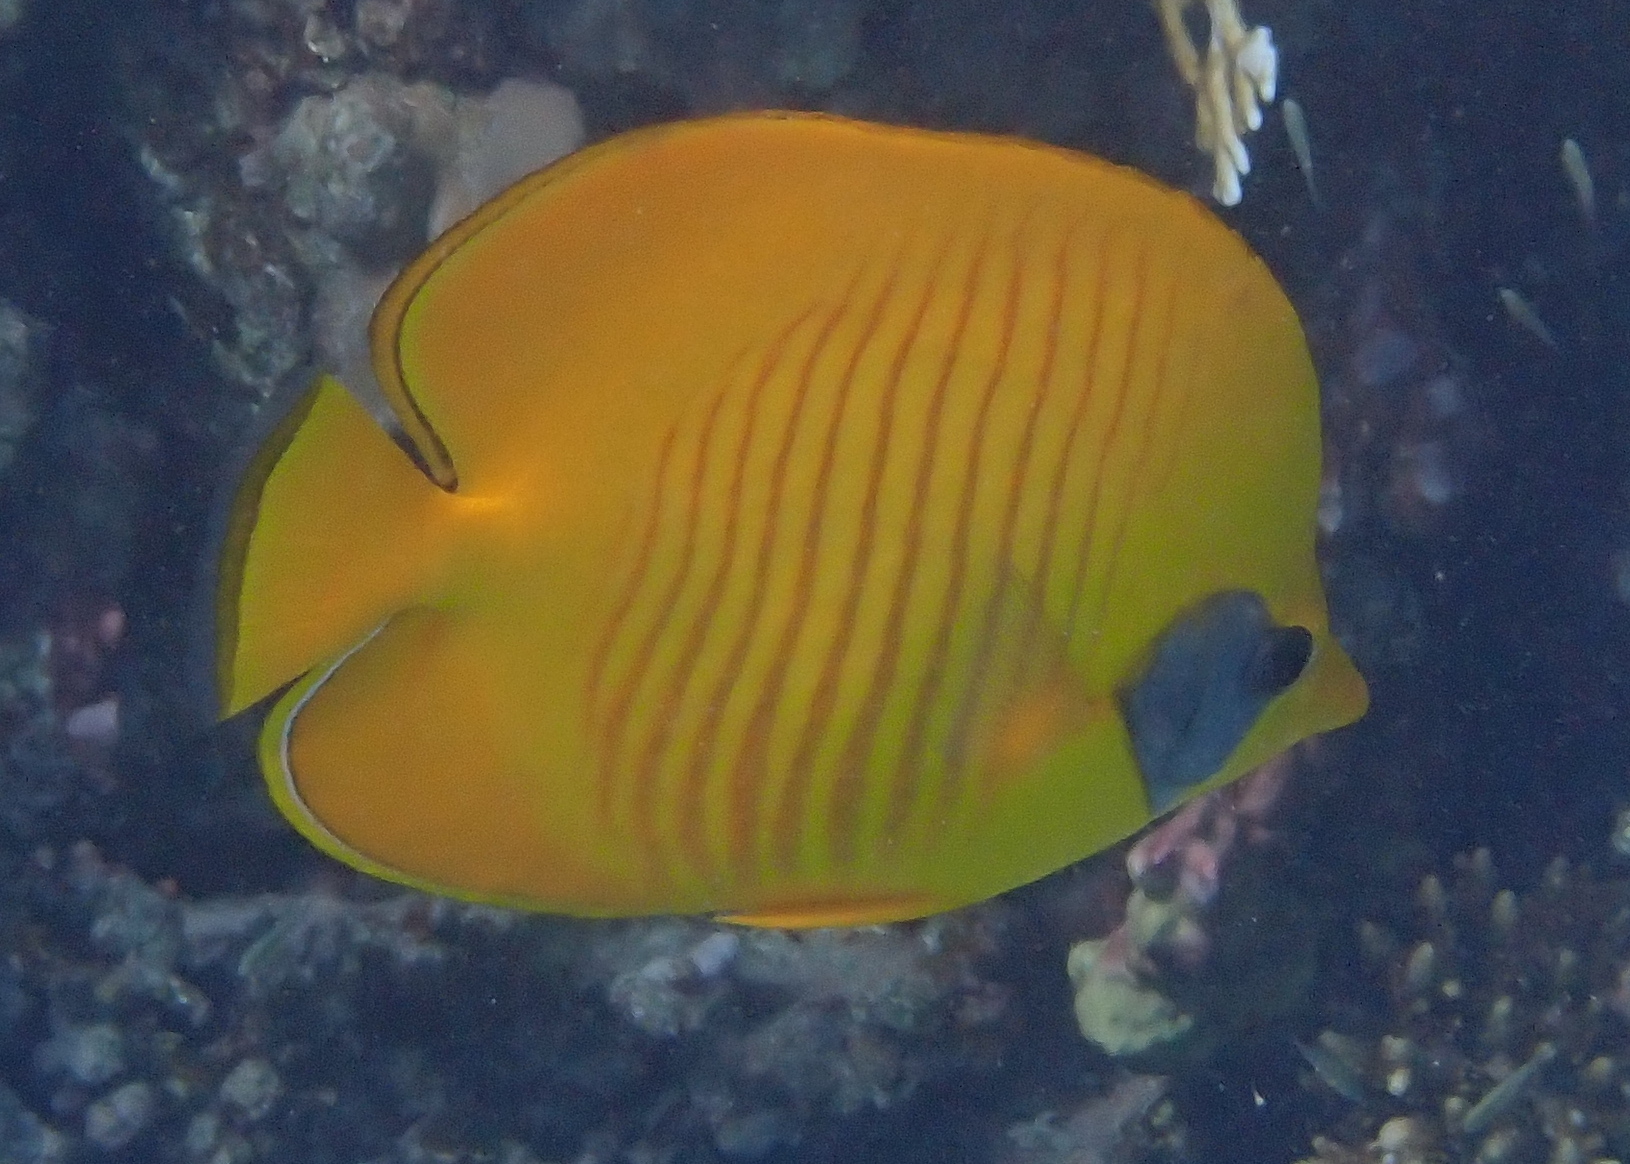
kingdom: Animalia
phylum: Chordata
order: Perciformes
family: Chaetodontidae
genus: Chaetodon
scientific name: Chaetodon semilarvatus
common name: Golden butterflyfish
